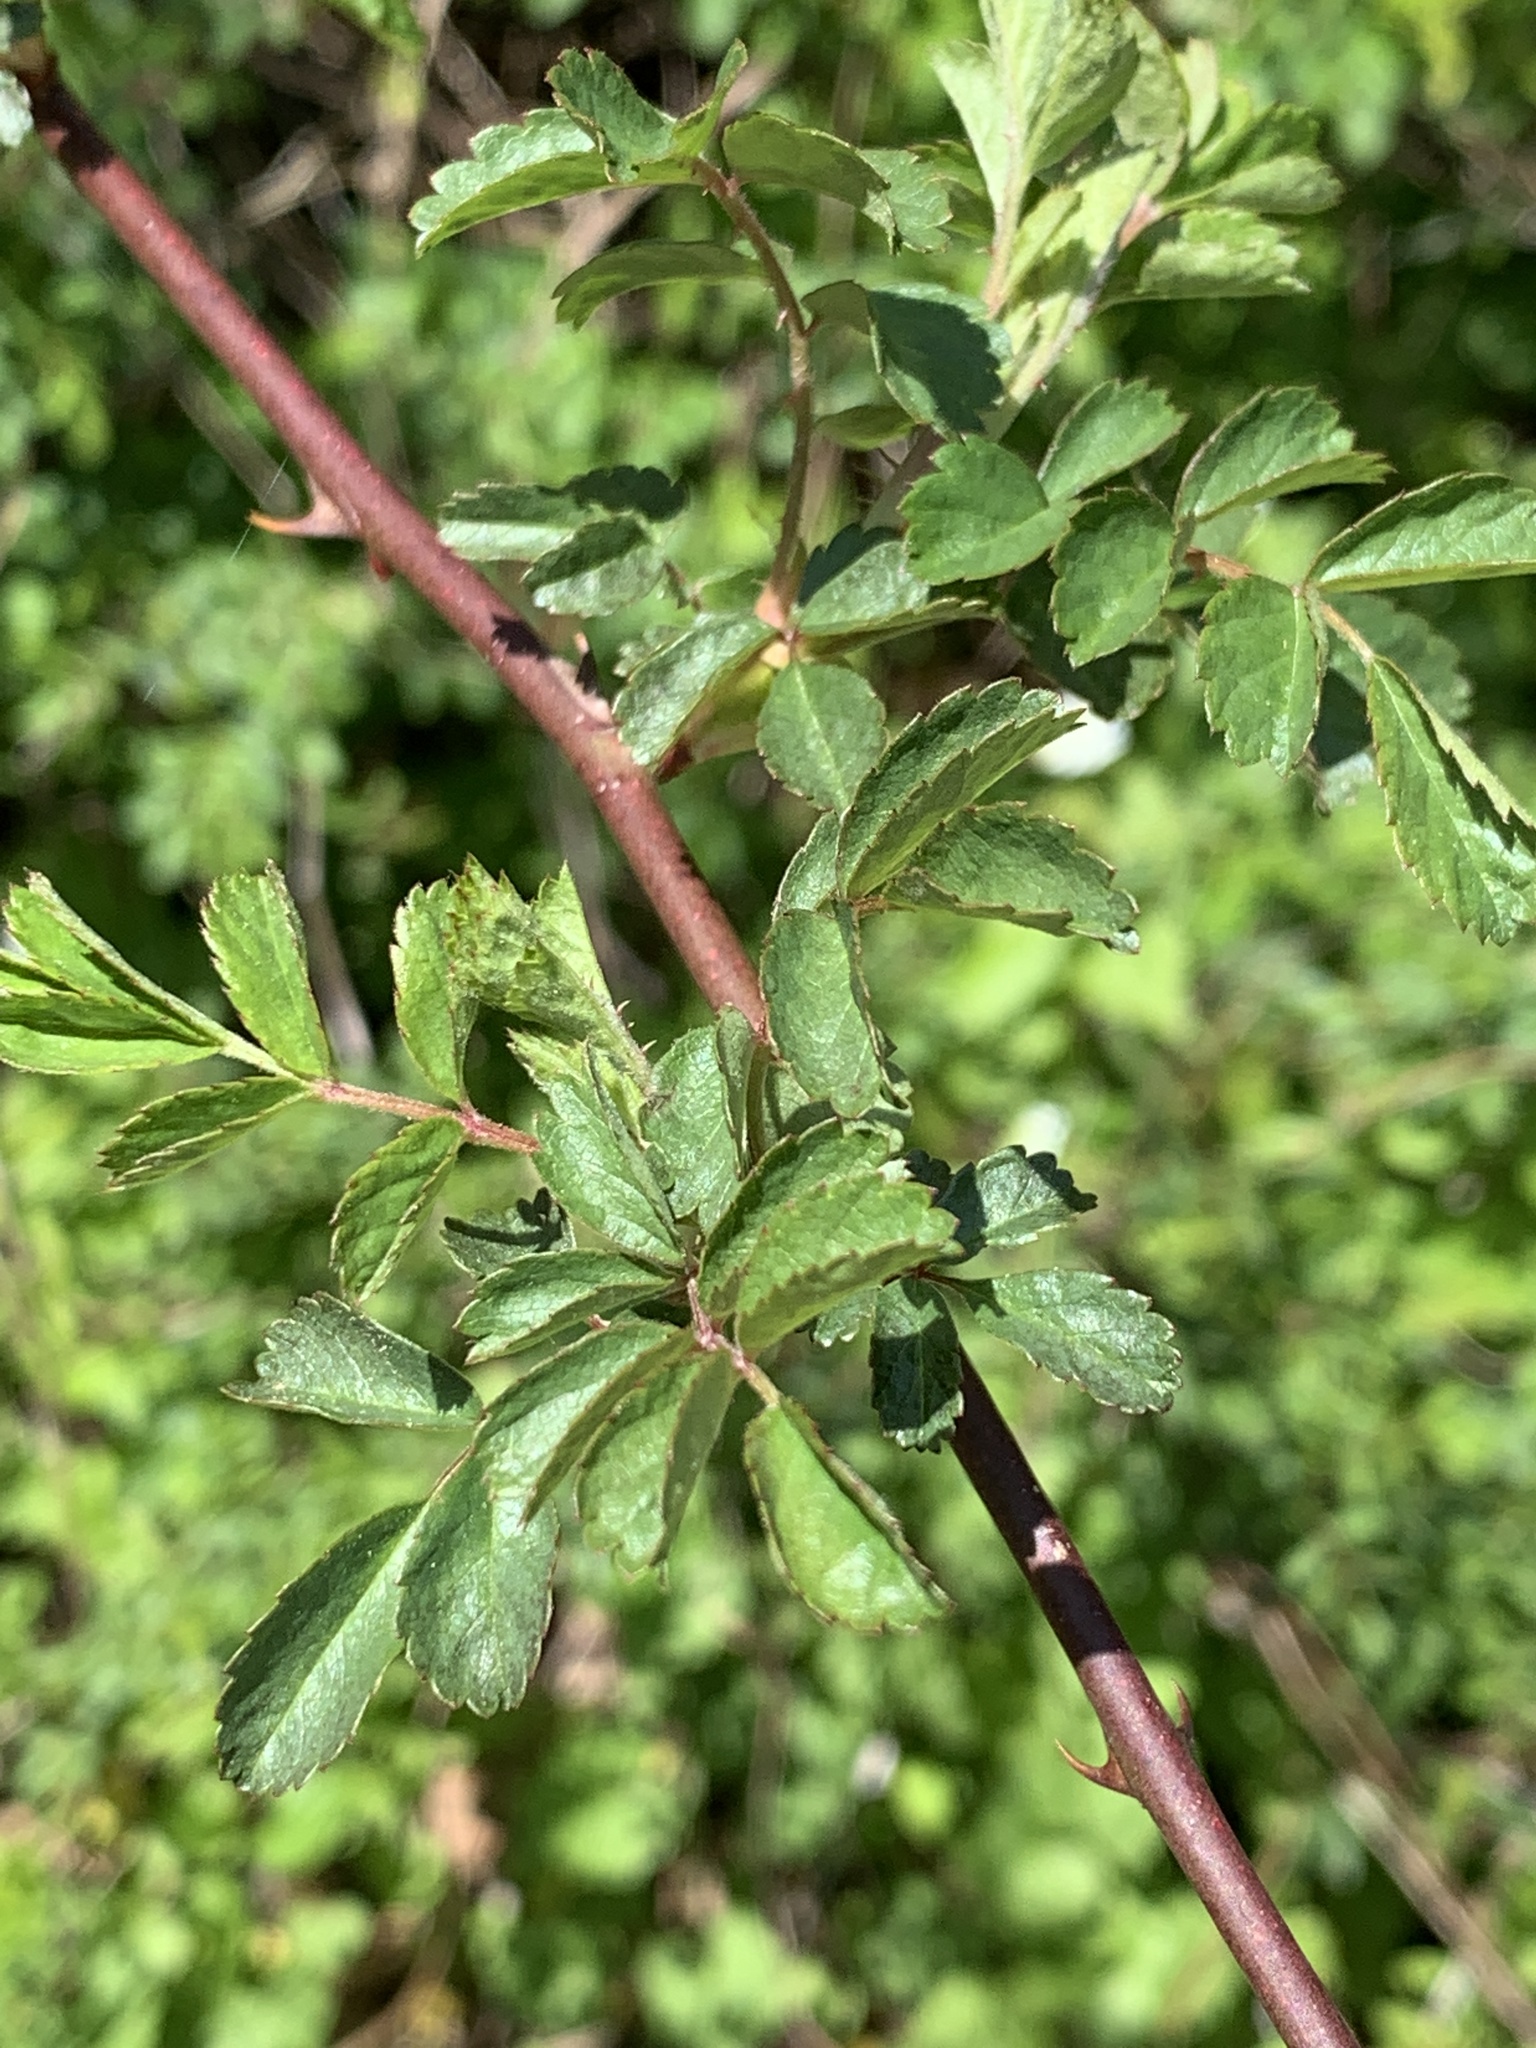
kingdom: Plantae
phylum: Tracheophyta
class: Magnoliopsida
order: Rosales
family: Rosaceae
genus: Rosa
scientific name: Rosa multiflora
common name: Multiflora rose
